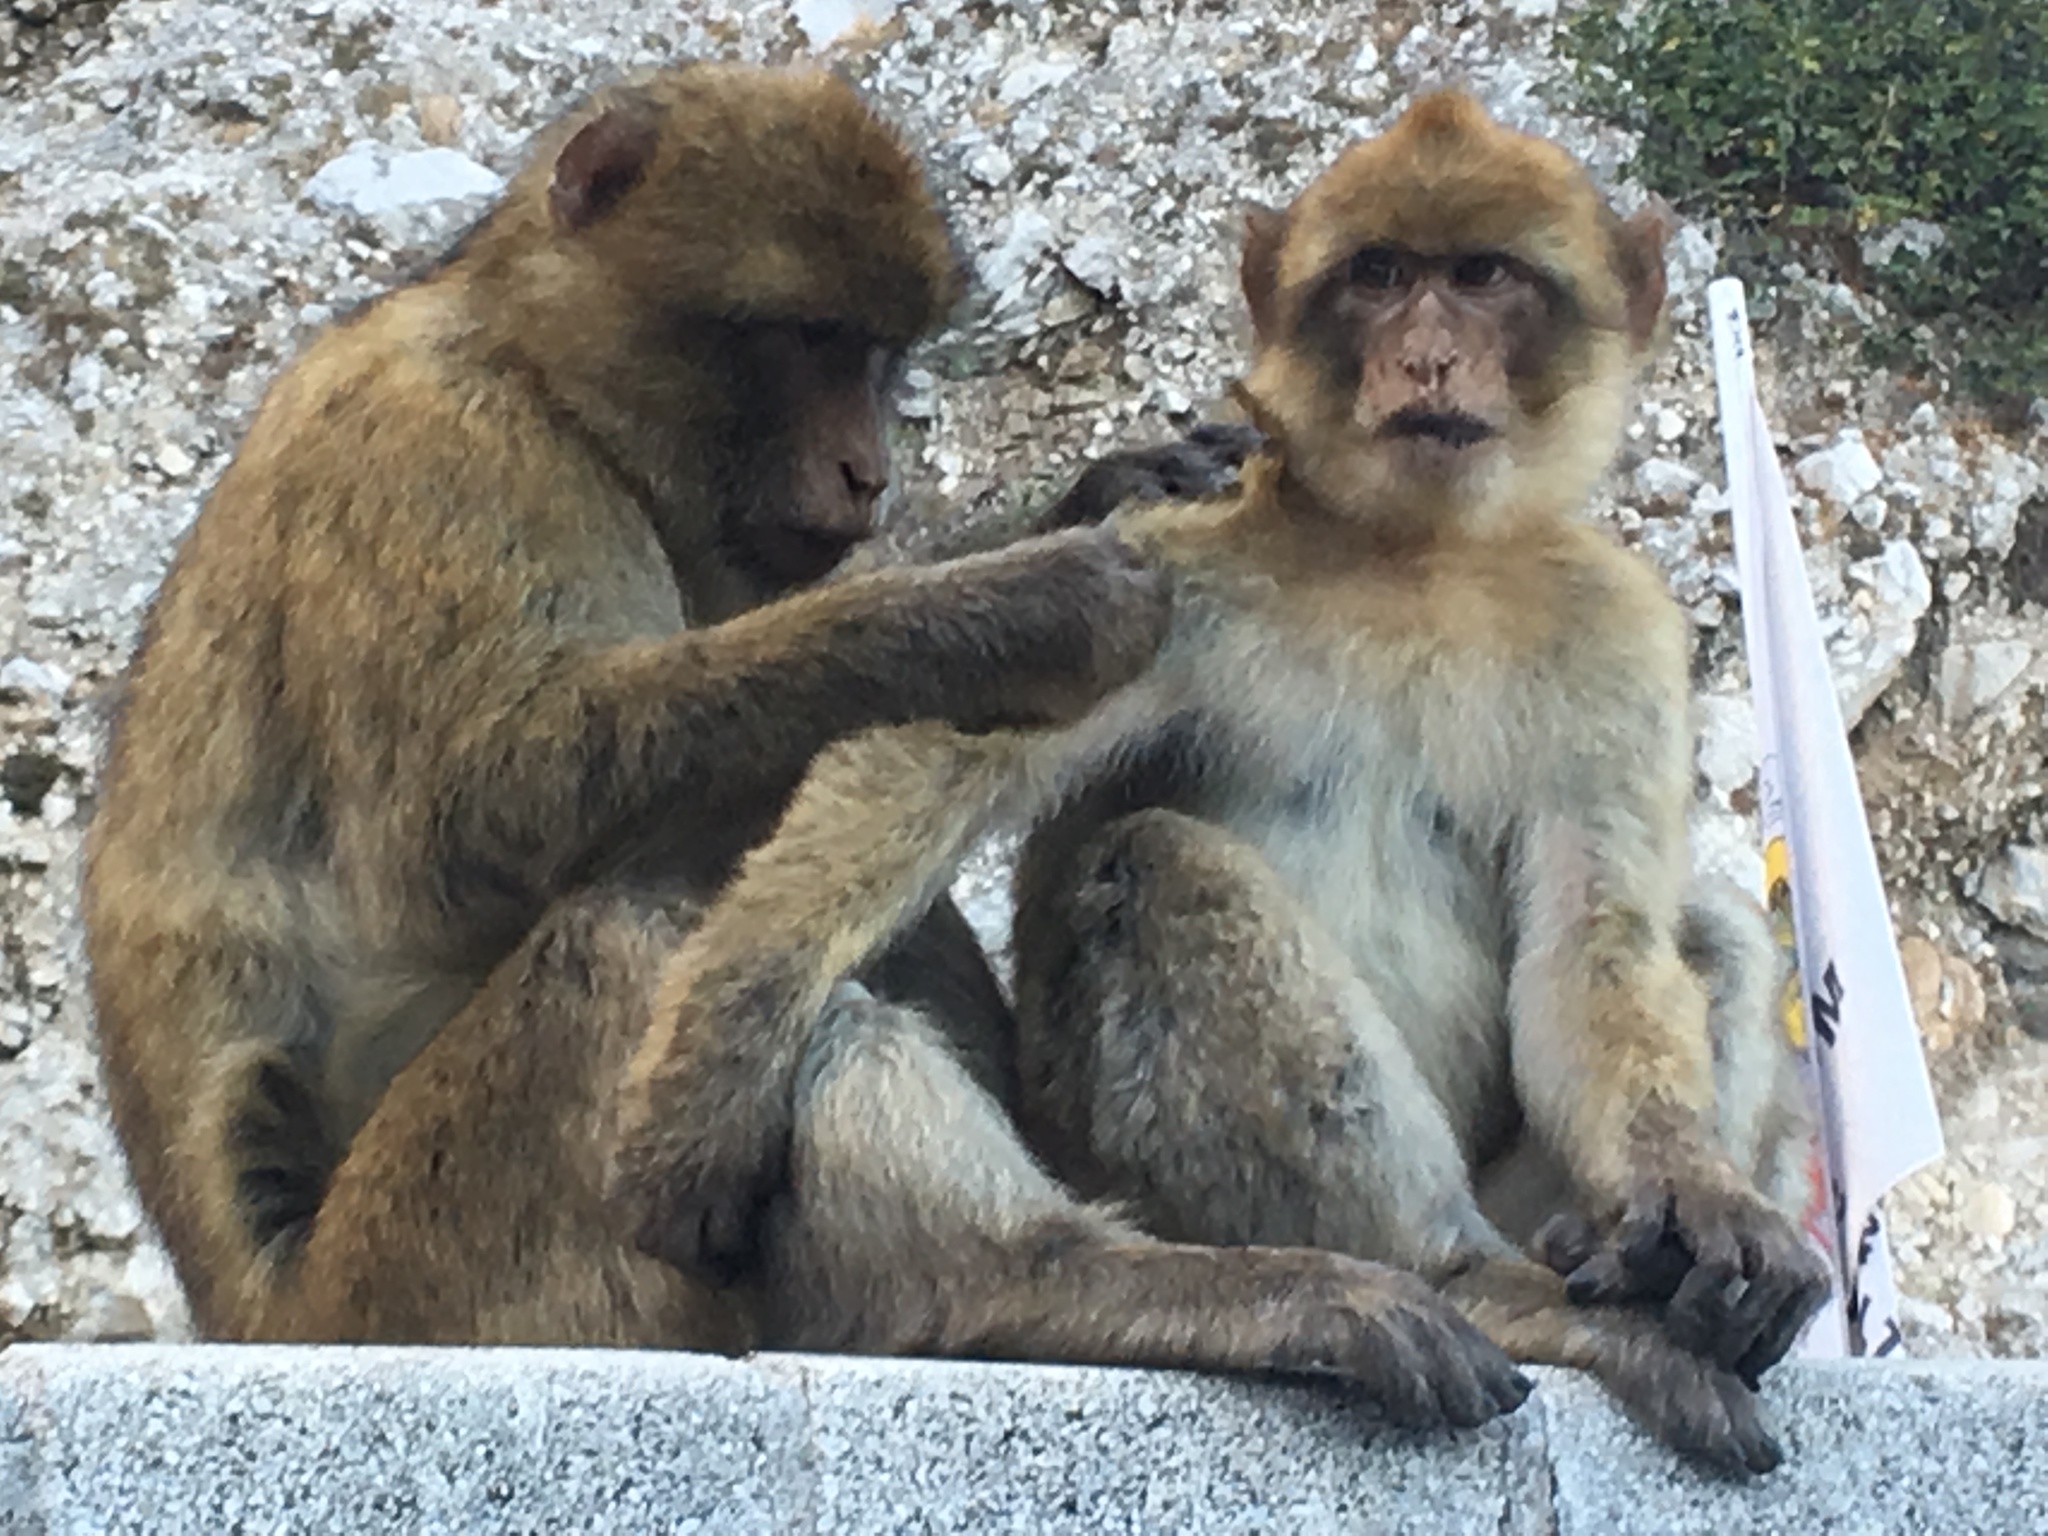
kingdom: Animalia
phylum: Chordata
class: Mammalia
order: Primates
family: Cercopithecidae
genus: Macaca
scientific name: Macaca sylvanus
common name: Barbary macaque
